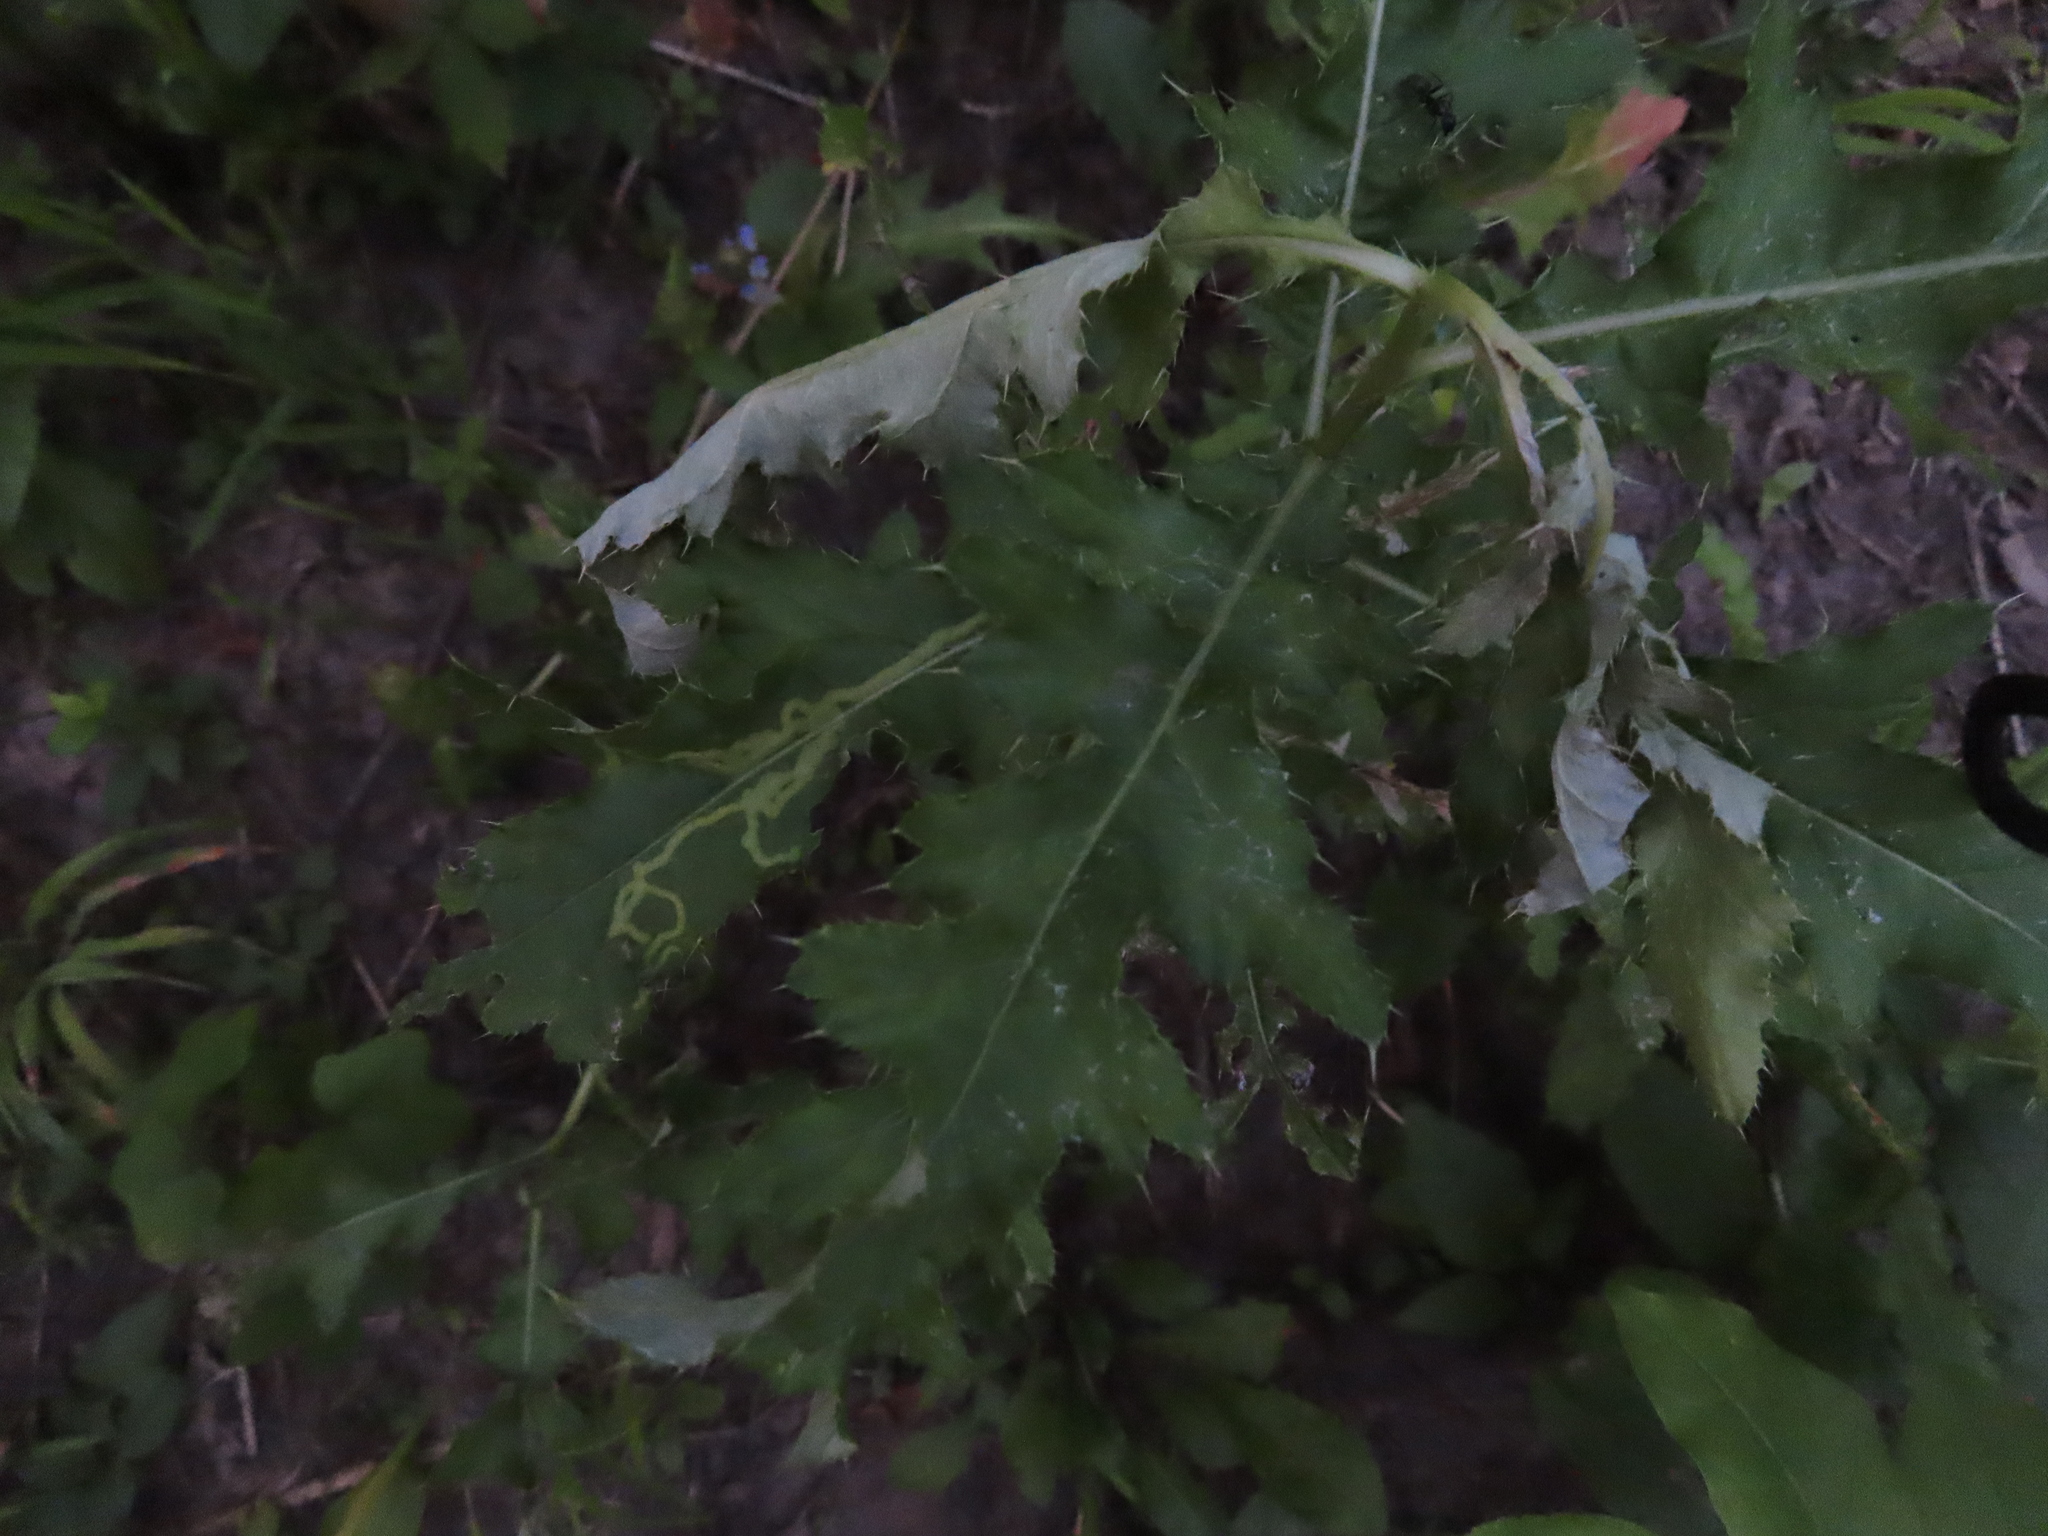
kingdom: Plantae
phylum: Tracheophyta
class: Magnoliopsida
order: Asterales
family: Asteraceae
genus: Cirsium
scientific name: Cirsium arvense
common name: Creeping thistle
